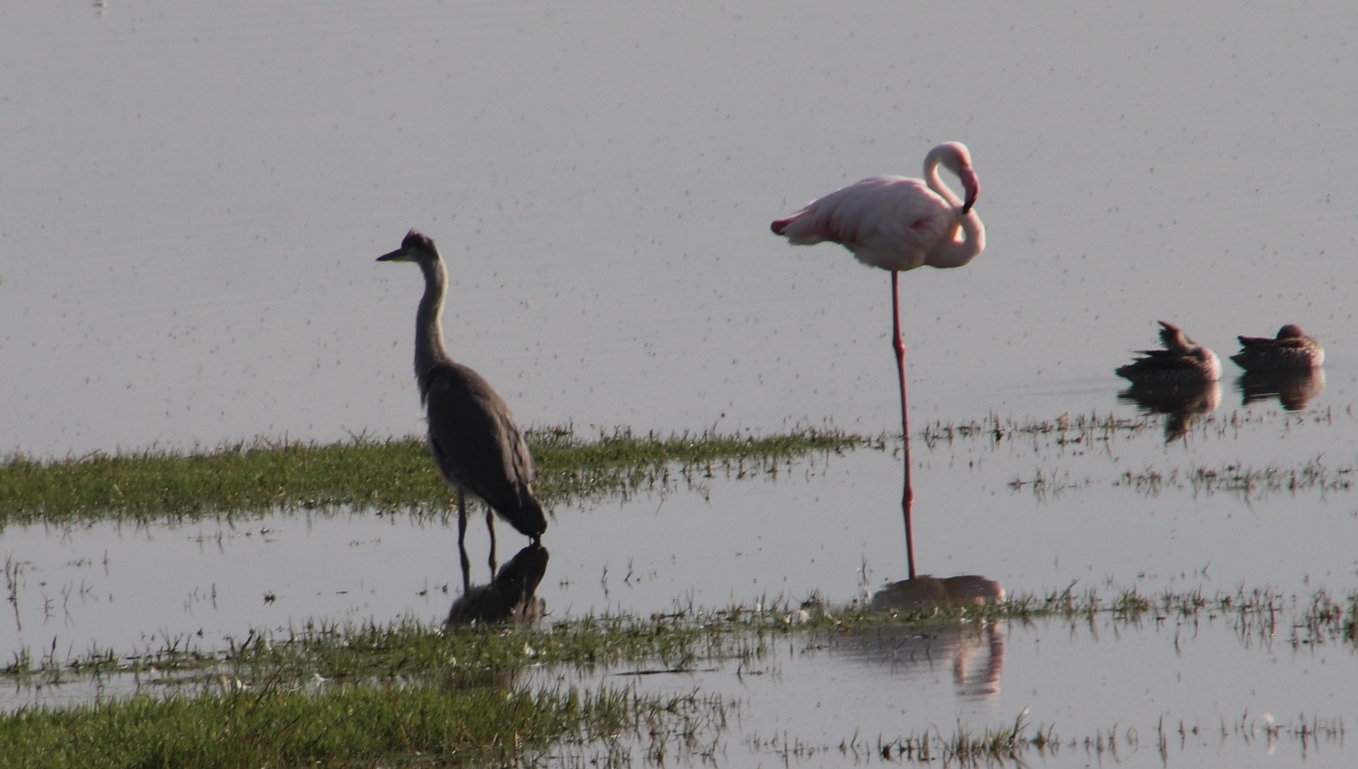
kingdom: Animalia
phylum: Chordata
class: Aves
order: Pelecaniformes
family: Ardeidae
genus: Ardea
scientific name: Ardea cinerea
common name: Grey heron
